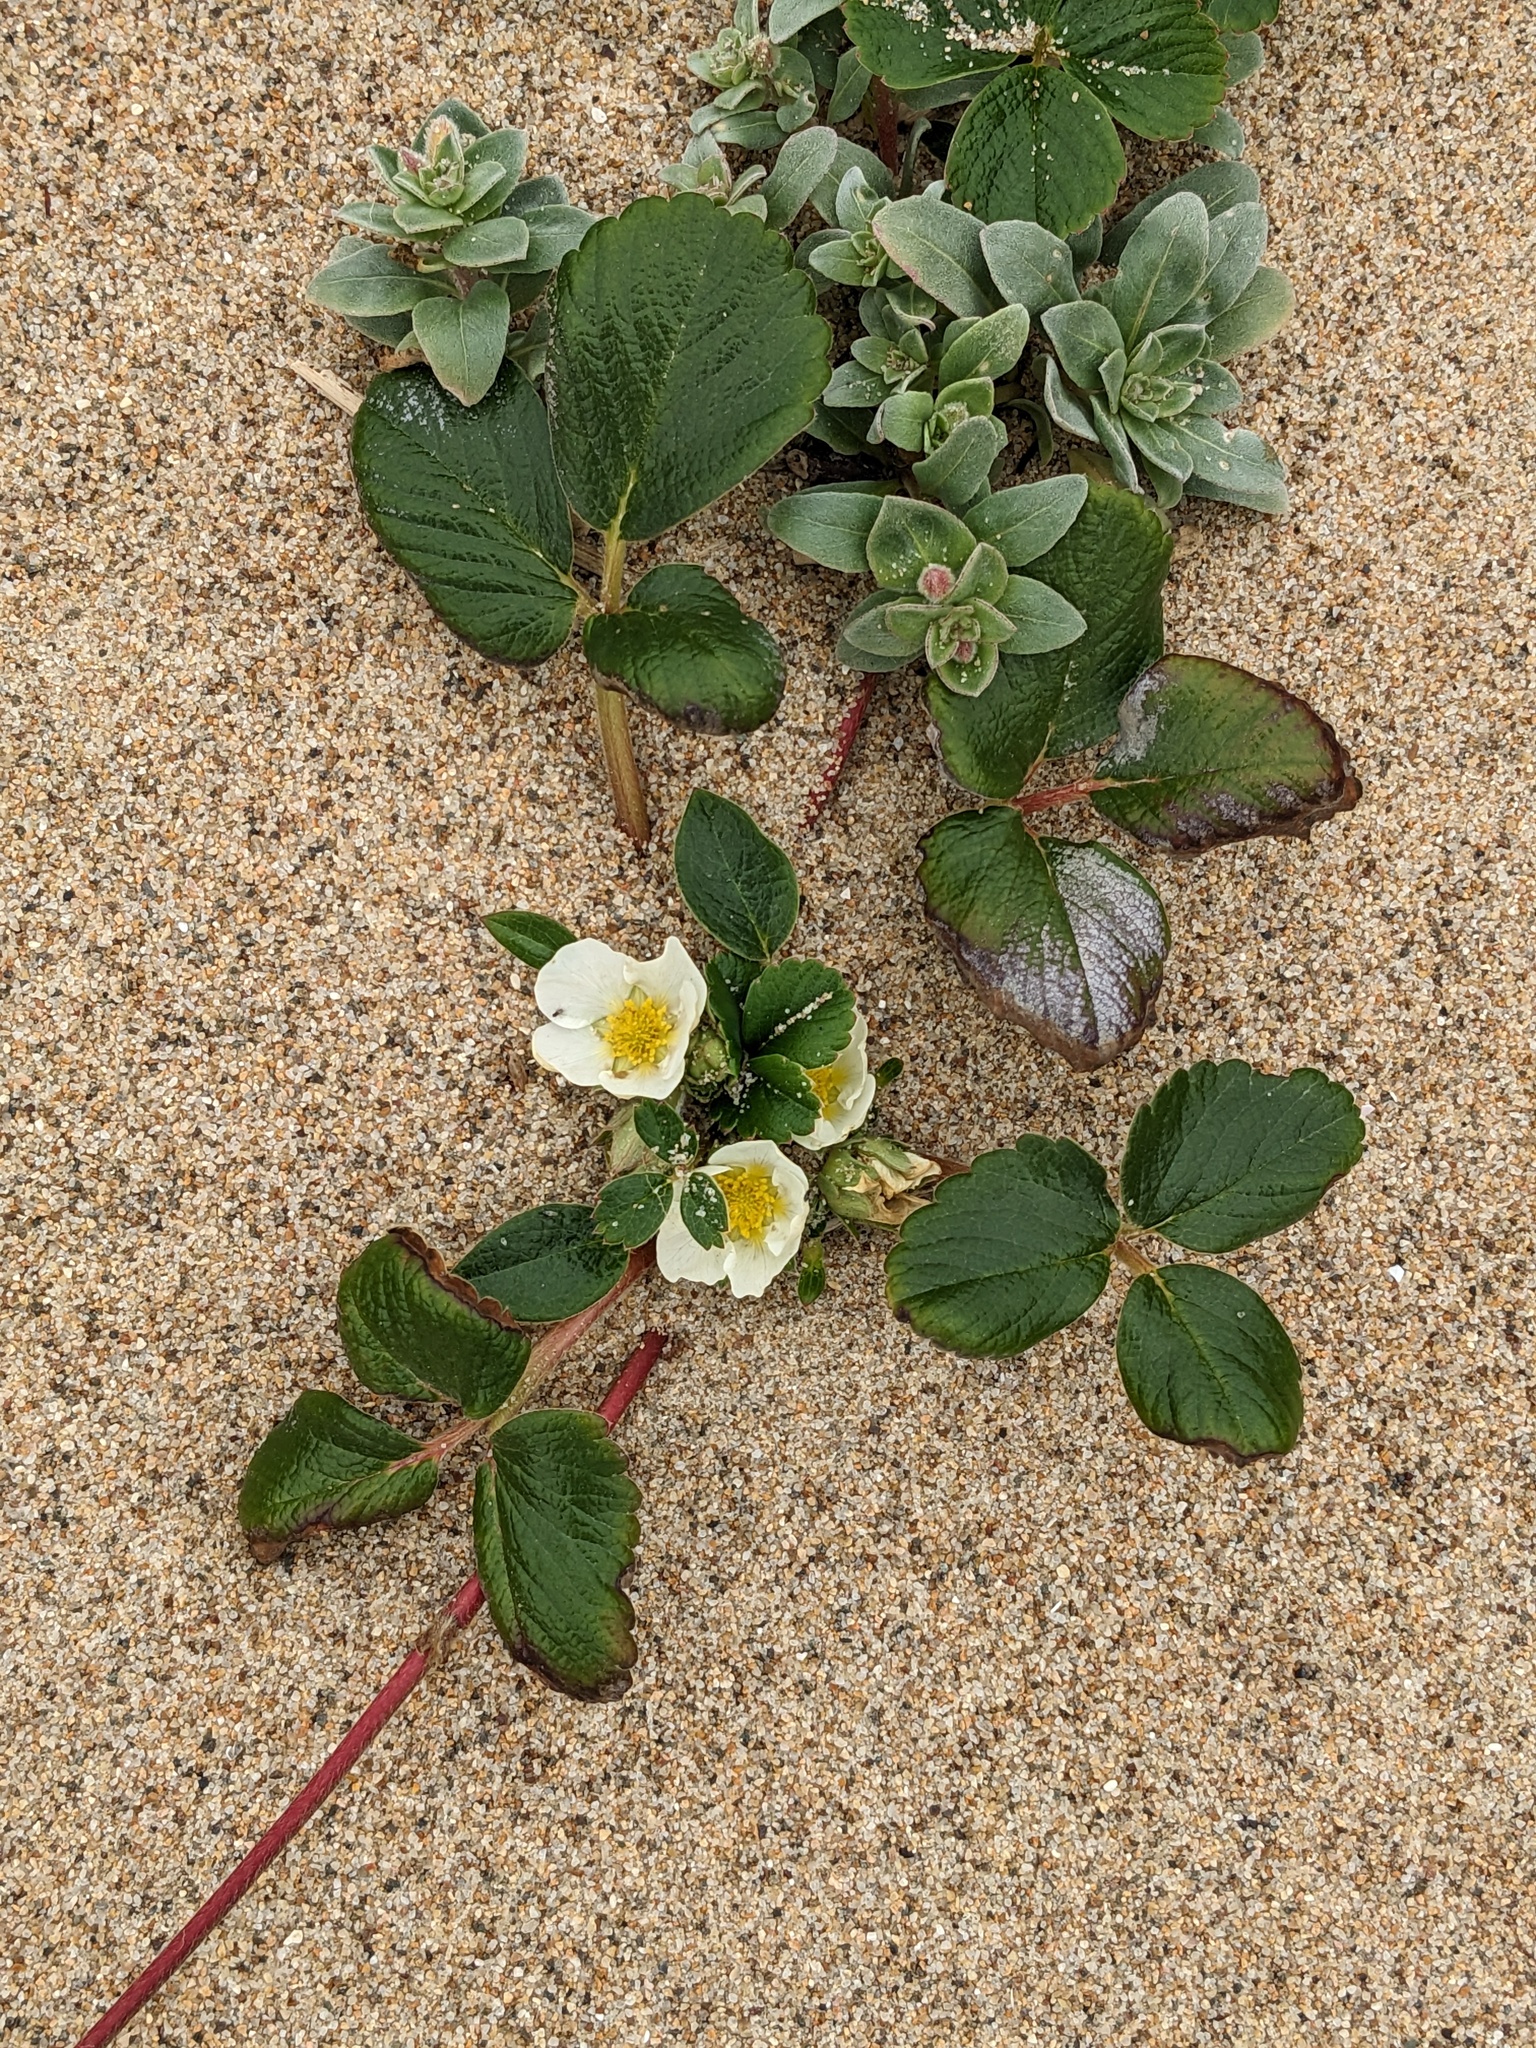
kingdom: Plantae
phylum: Tracheophyta
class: Magnoliopsida
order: Rosales
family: Rosaceae
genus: Fragaria
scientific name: Fragaria chiloensis
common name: Beach strawberry
